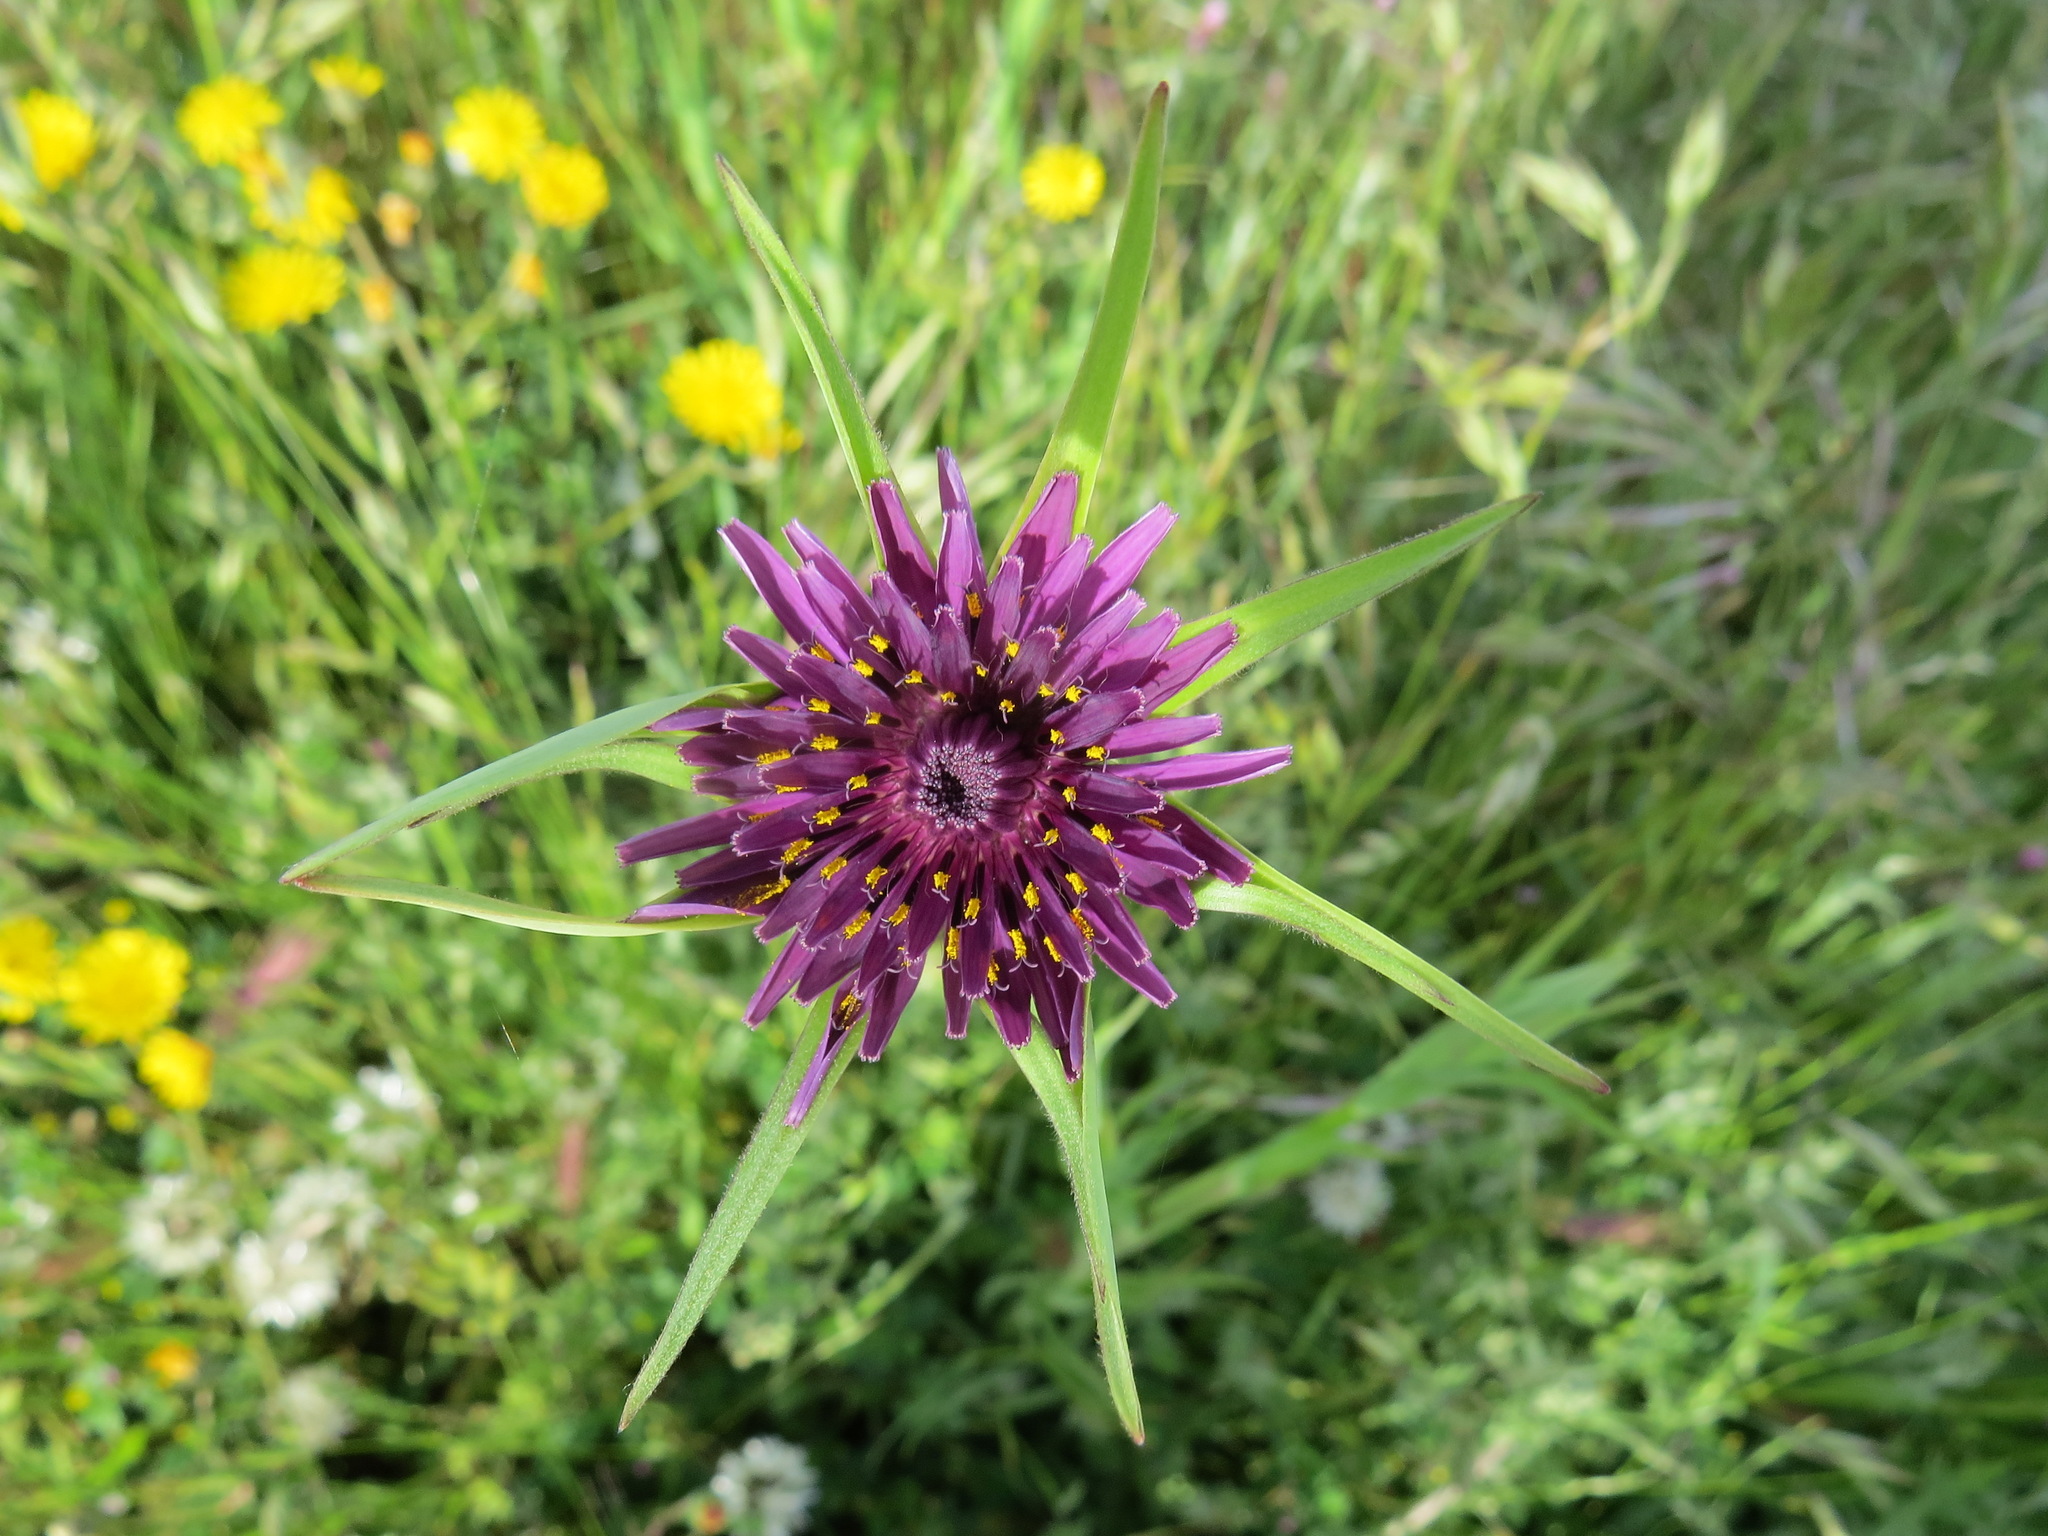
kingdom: Plantae
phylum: Tracheophyta
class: Magnoliopsida
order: Asterales
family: Asteraceae
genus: Tragopogon
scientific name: Tragopogon porrifolius
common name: Salsify
